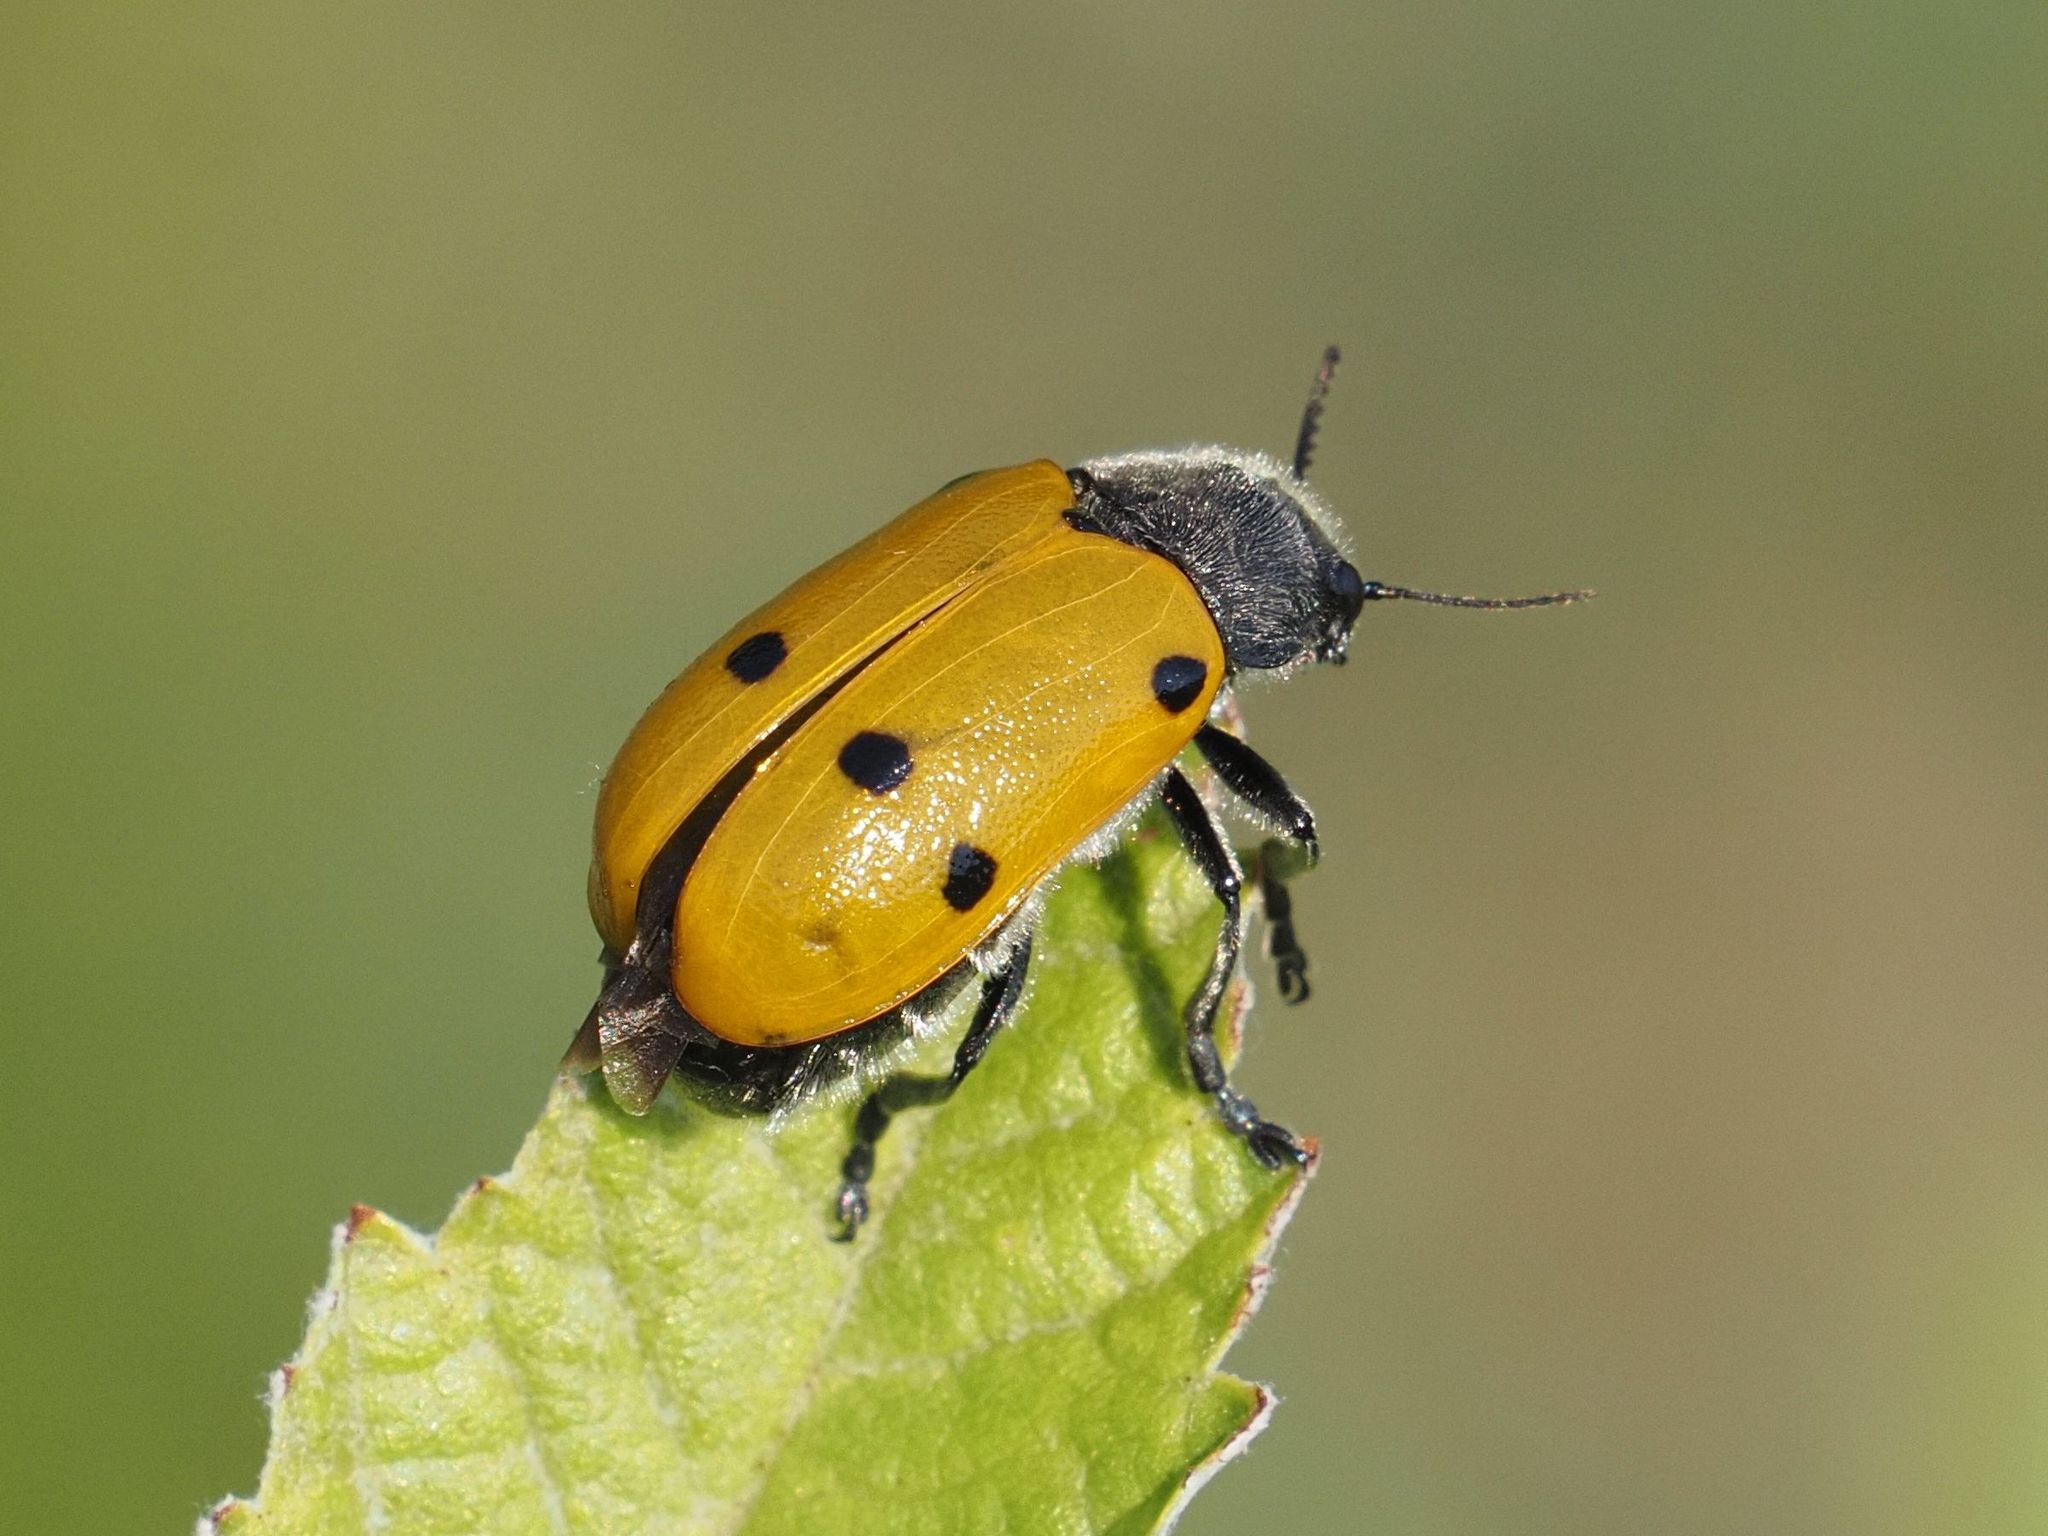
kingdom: Animalia
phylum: Arthropoda
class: Insecta
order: Coleoptera
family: Chrysomelidae
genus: Lachnaia
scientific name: Lachnaia sexpunctata
